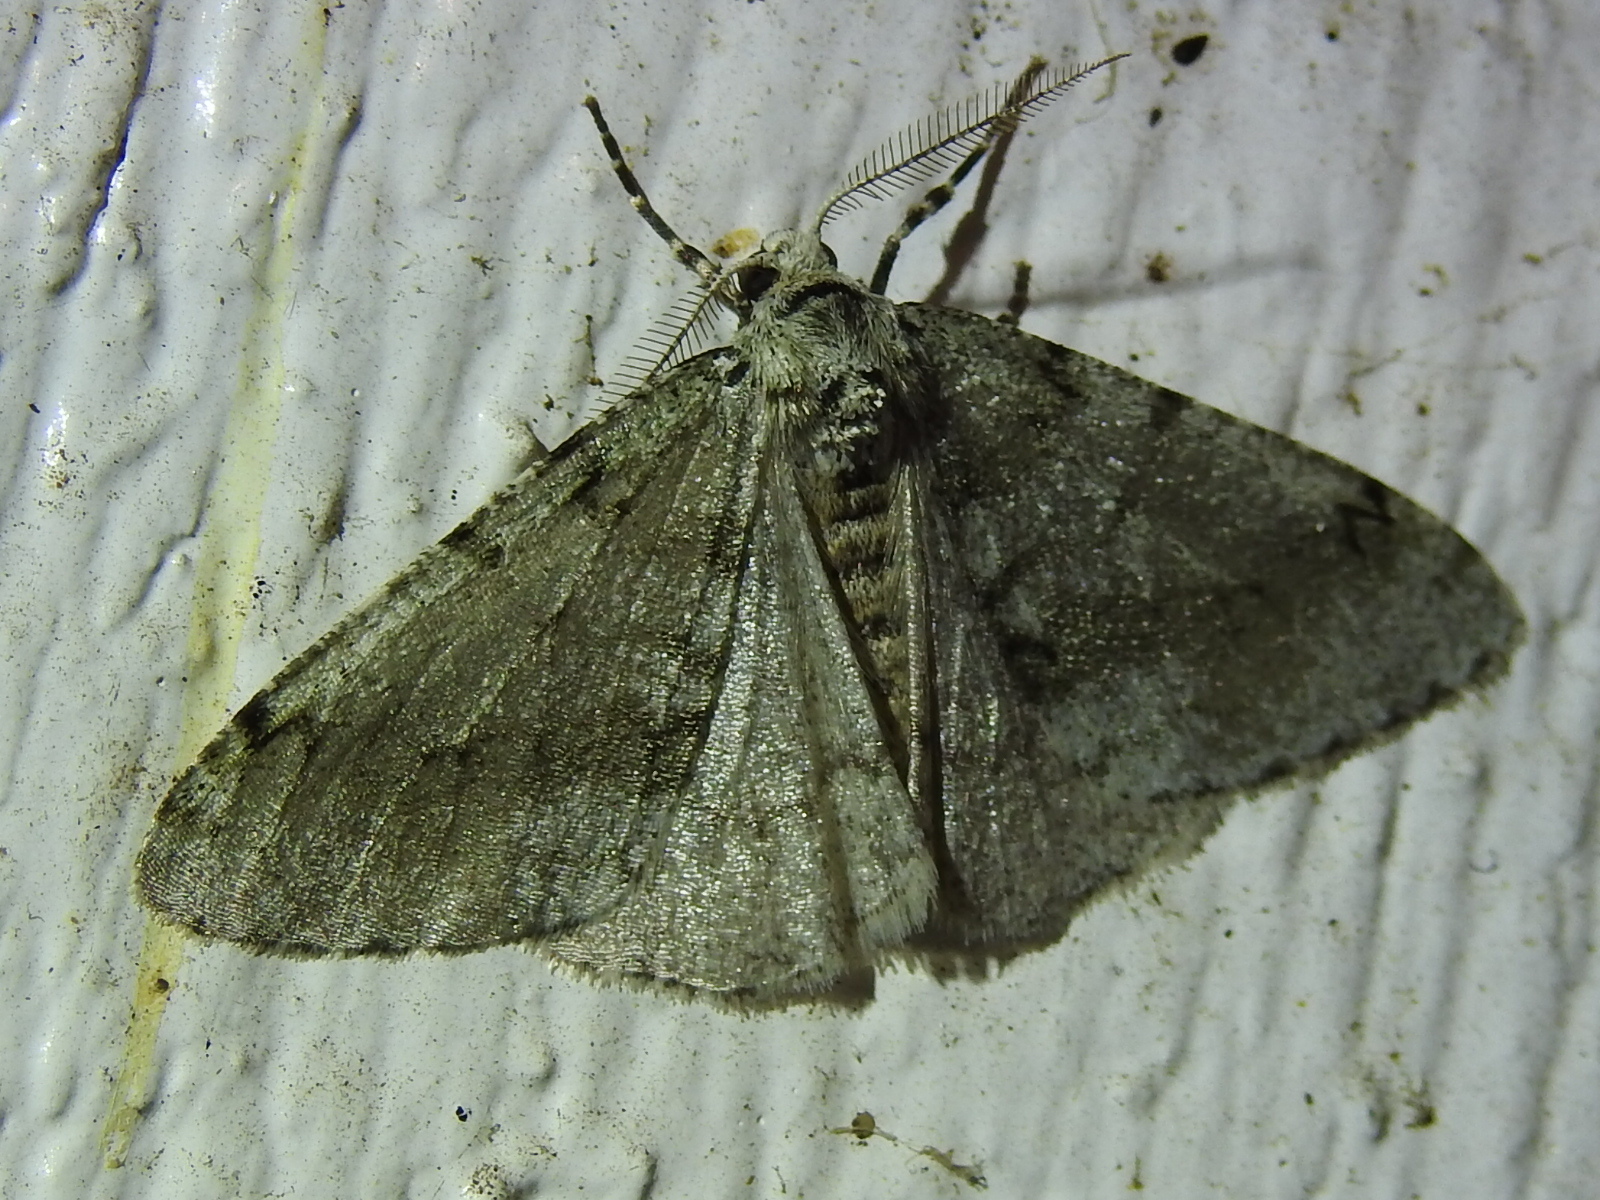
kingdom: Animalia
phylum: Arthropoda
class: Insecta
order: Lepidoptera
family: Geometridae
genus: Phigalia
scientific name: Phigalia strigataria
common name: Small phigalia
